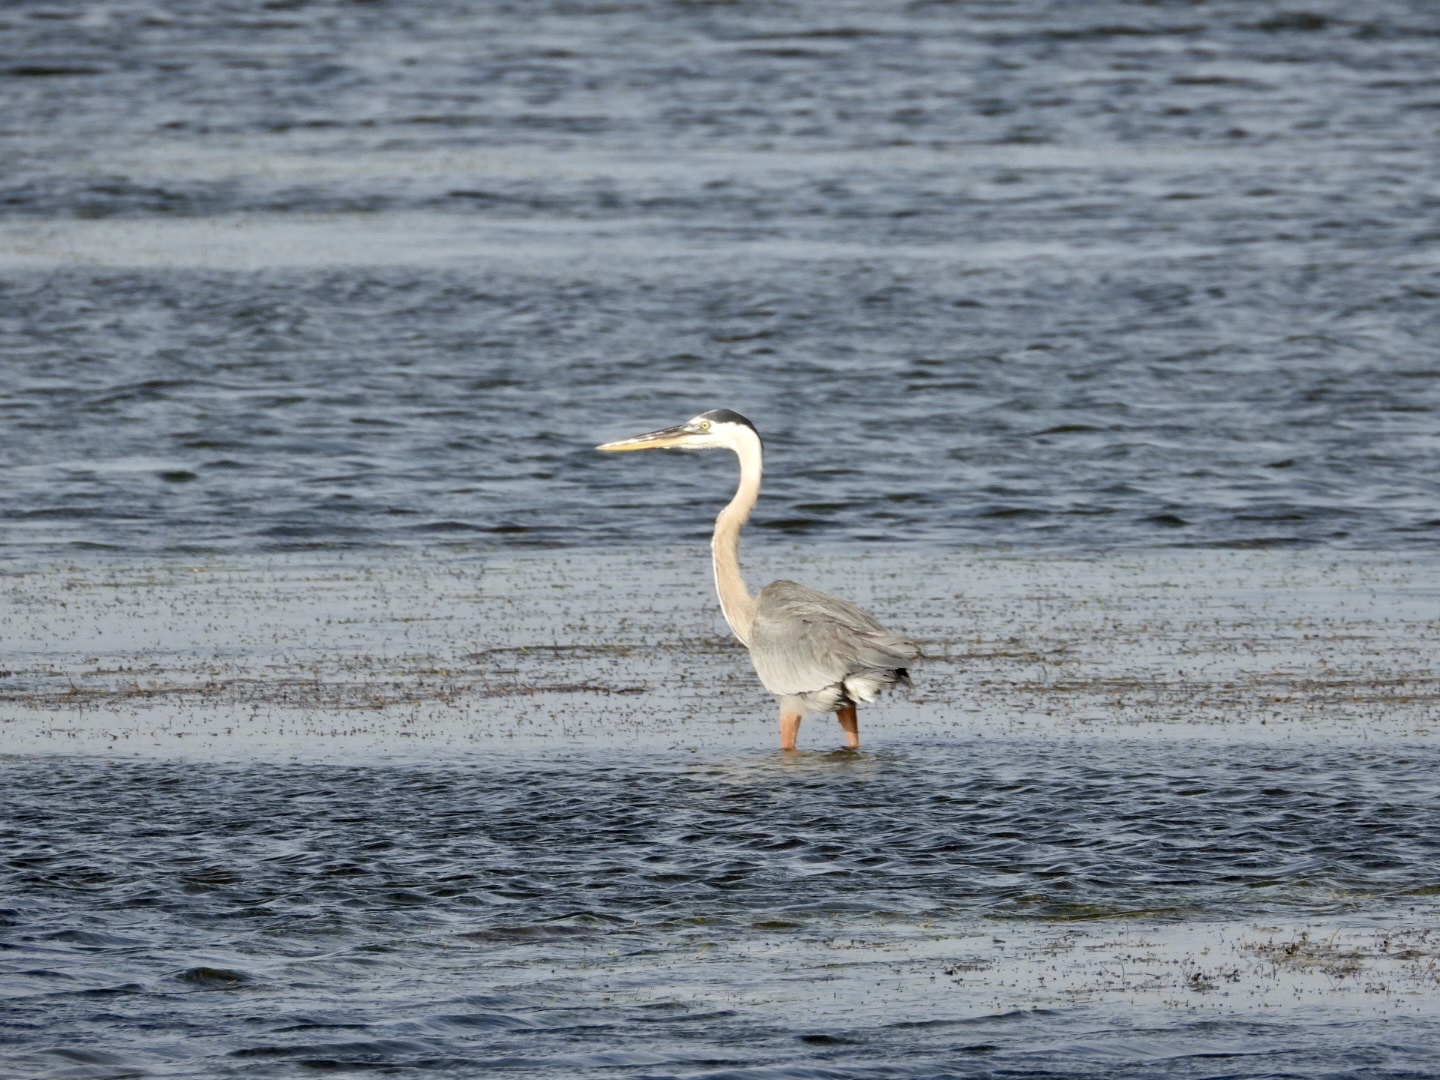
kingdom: Animalia
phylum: Chordata
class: Aves
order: Pelecaniformes
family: Ardeidae
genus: Ardea
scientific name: Ardea herodias
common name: Great blue heron
